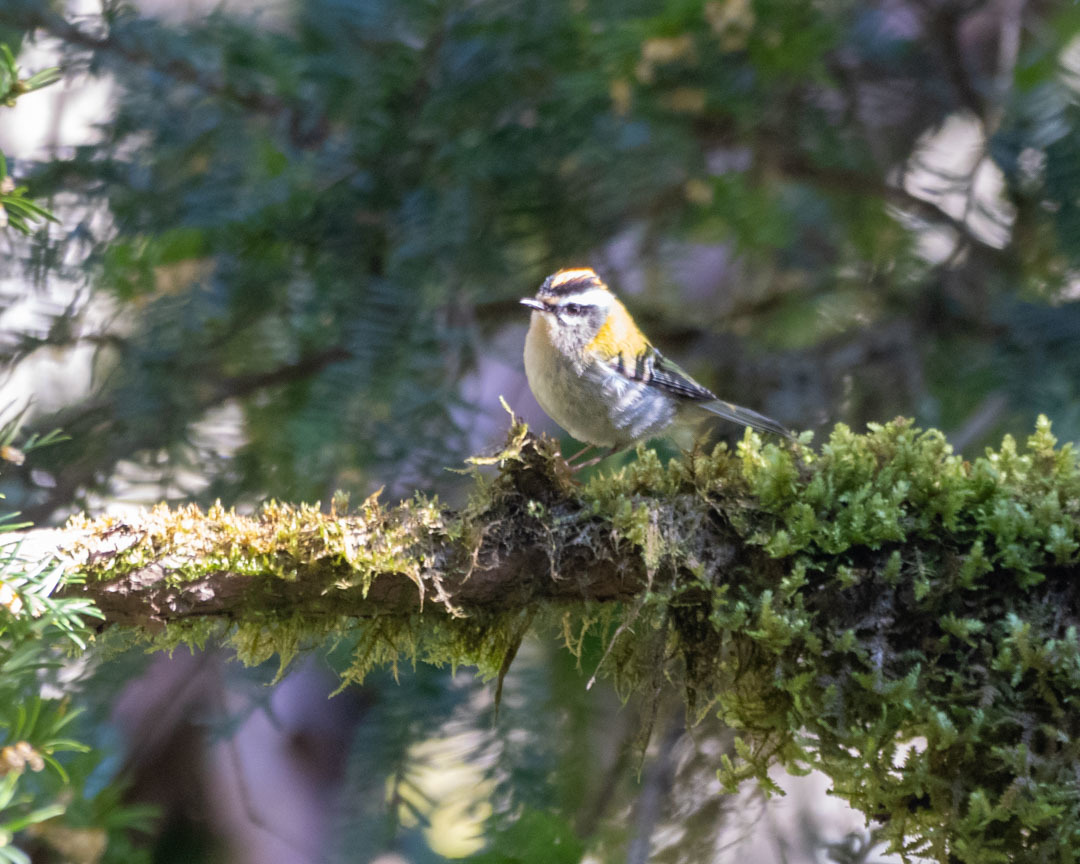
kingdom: Animalia
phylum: Chordata
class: Aves
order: Passeriformes
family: Regulidae
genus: Regulus
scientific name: Regulus ignicapilla
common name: Firecrest
